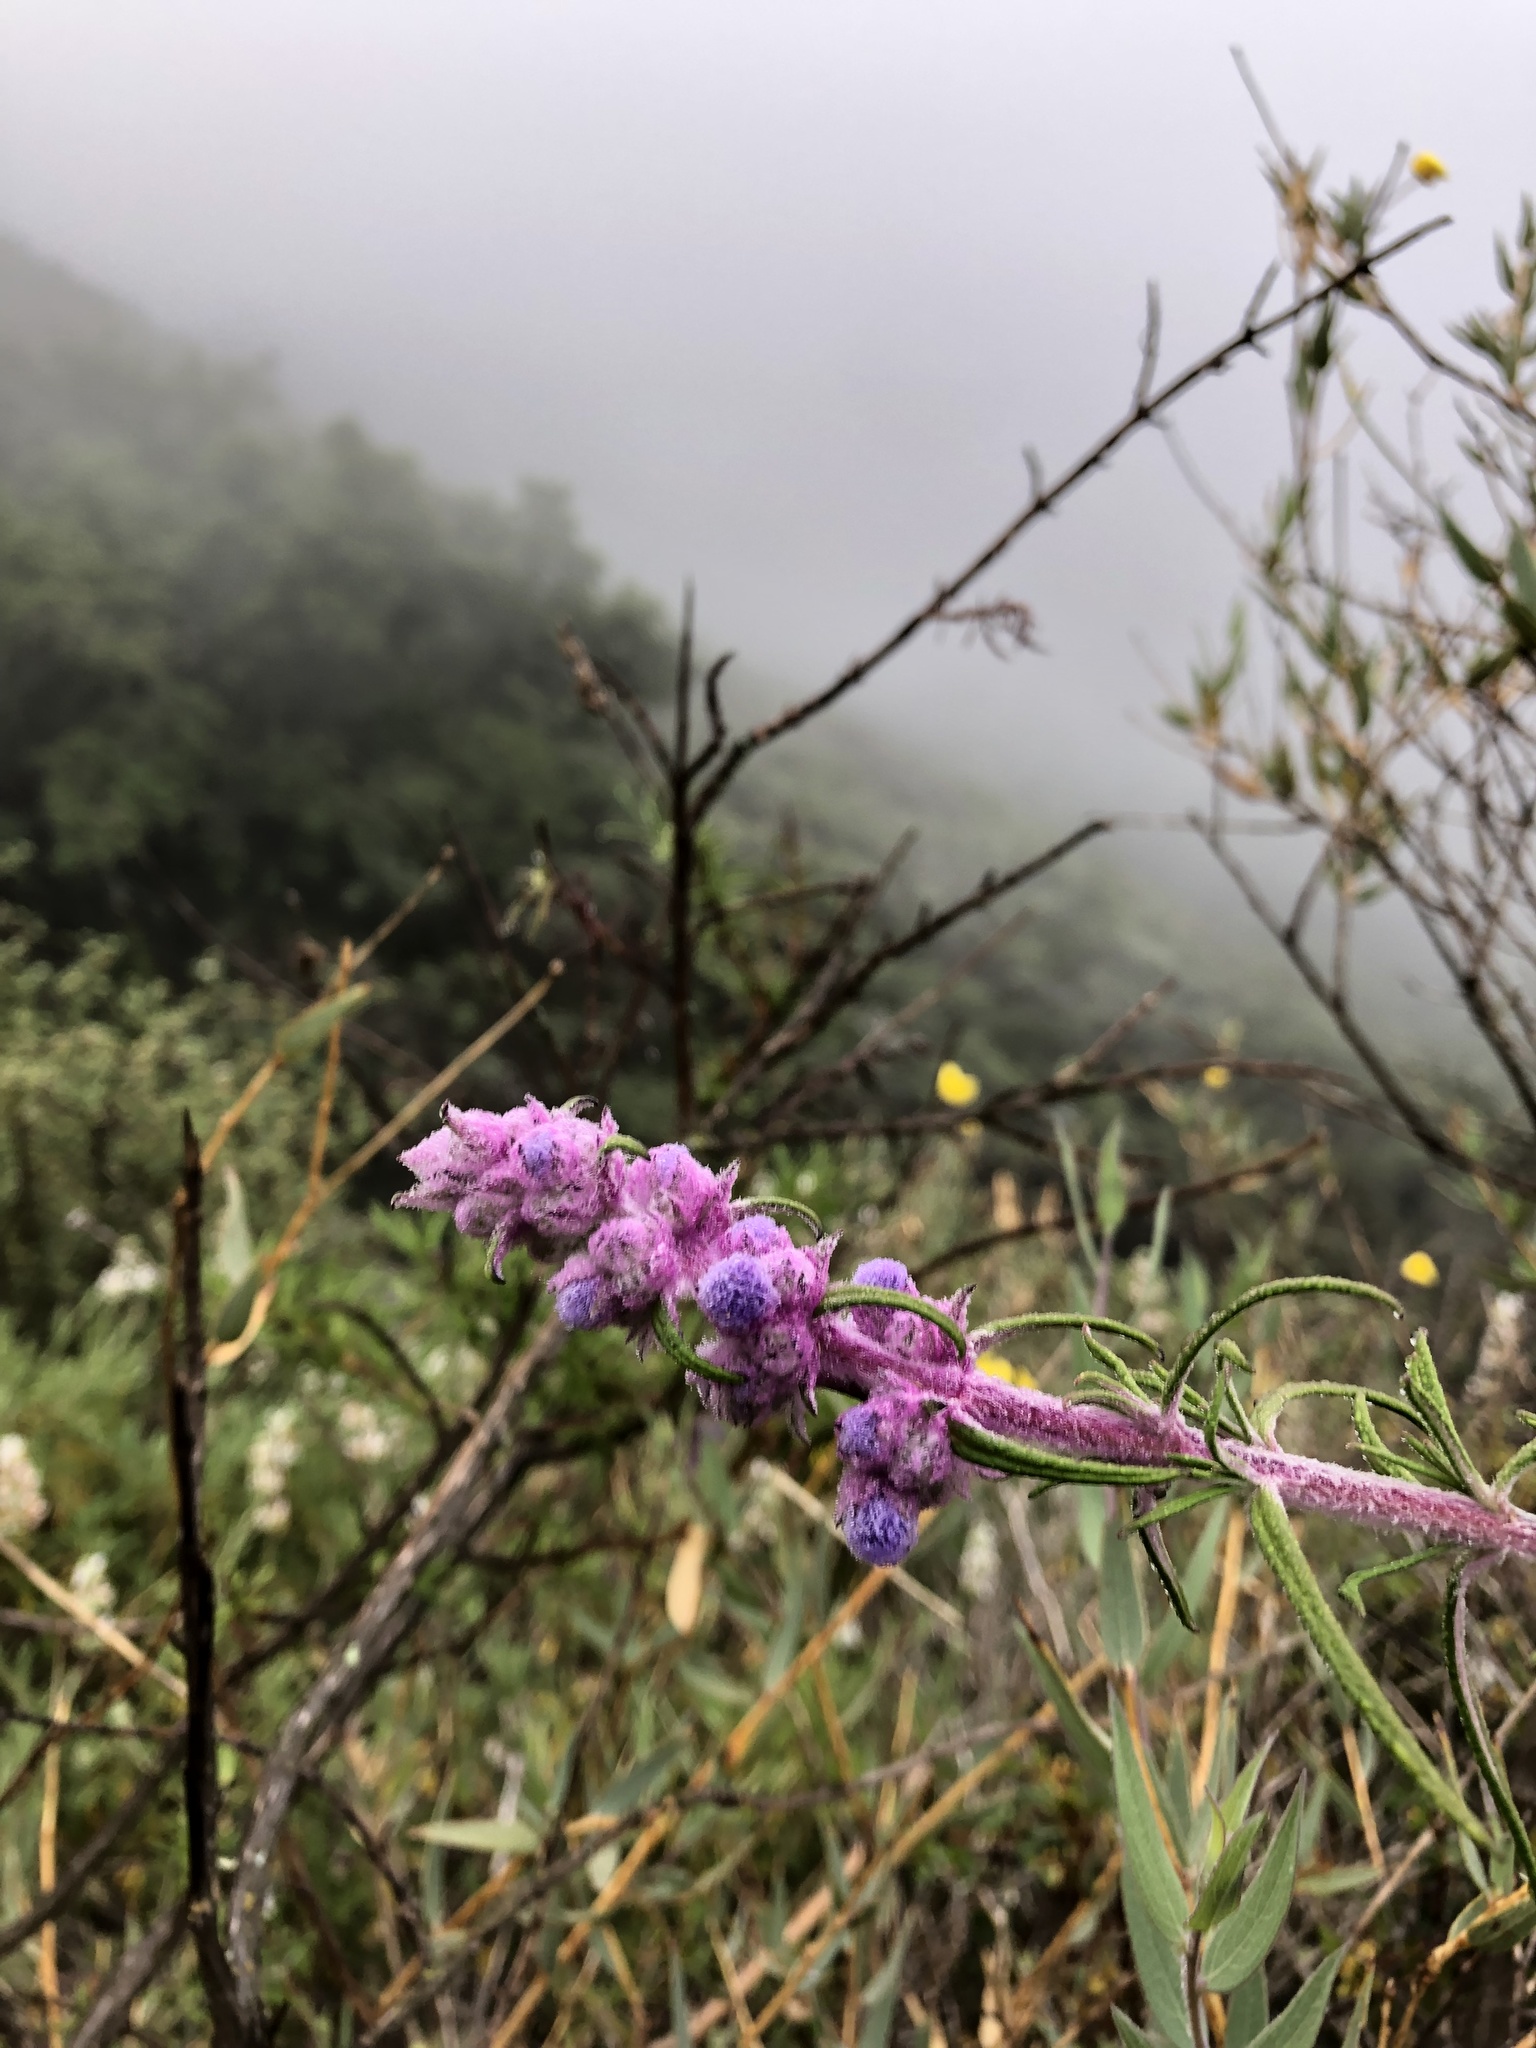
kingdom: Plantae
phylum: Tracheophyta
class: Magnoliopsida
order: Lamiales
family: Lamiaceae
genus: Trichostema
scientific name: Trichostema lanatum
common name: Woolly bluecurls
